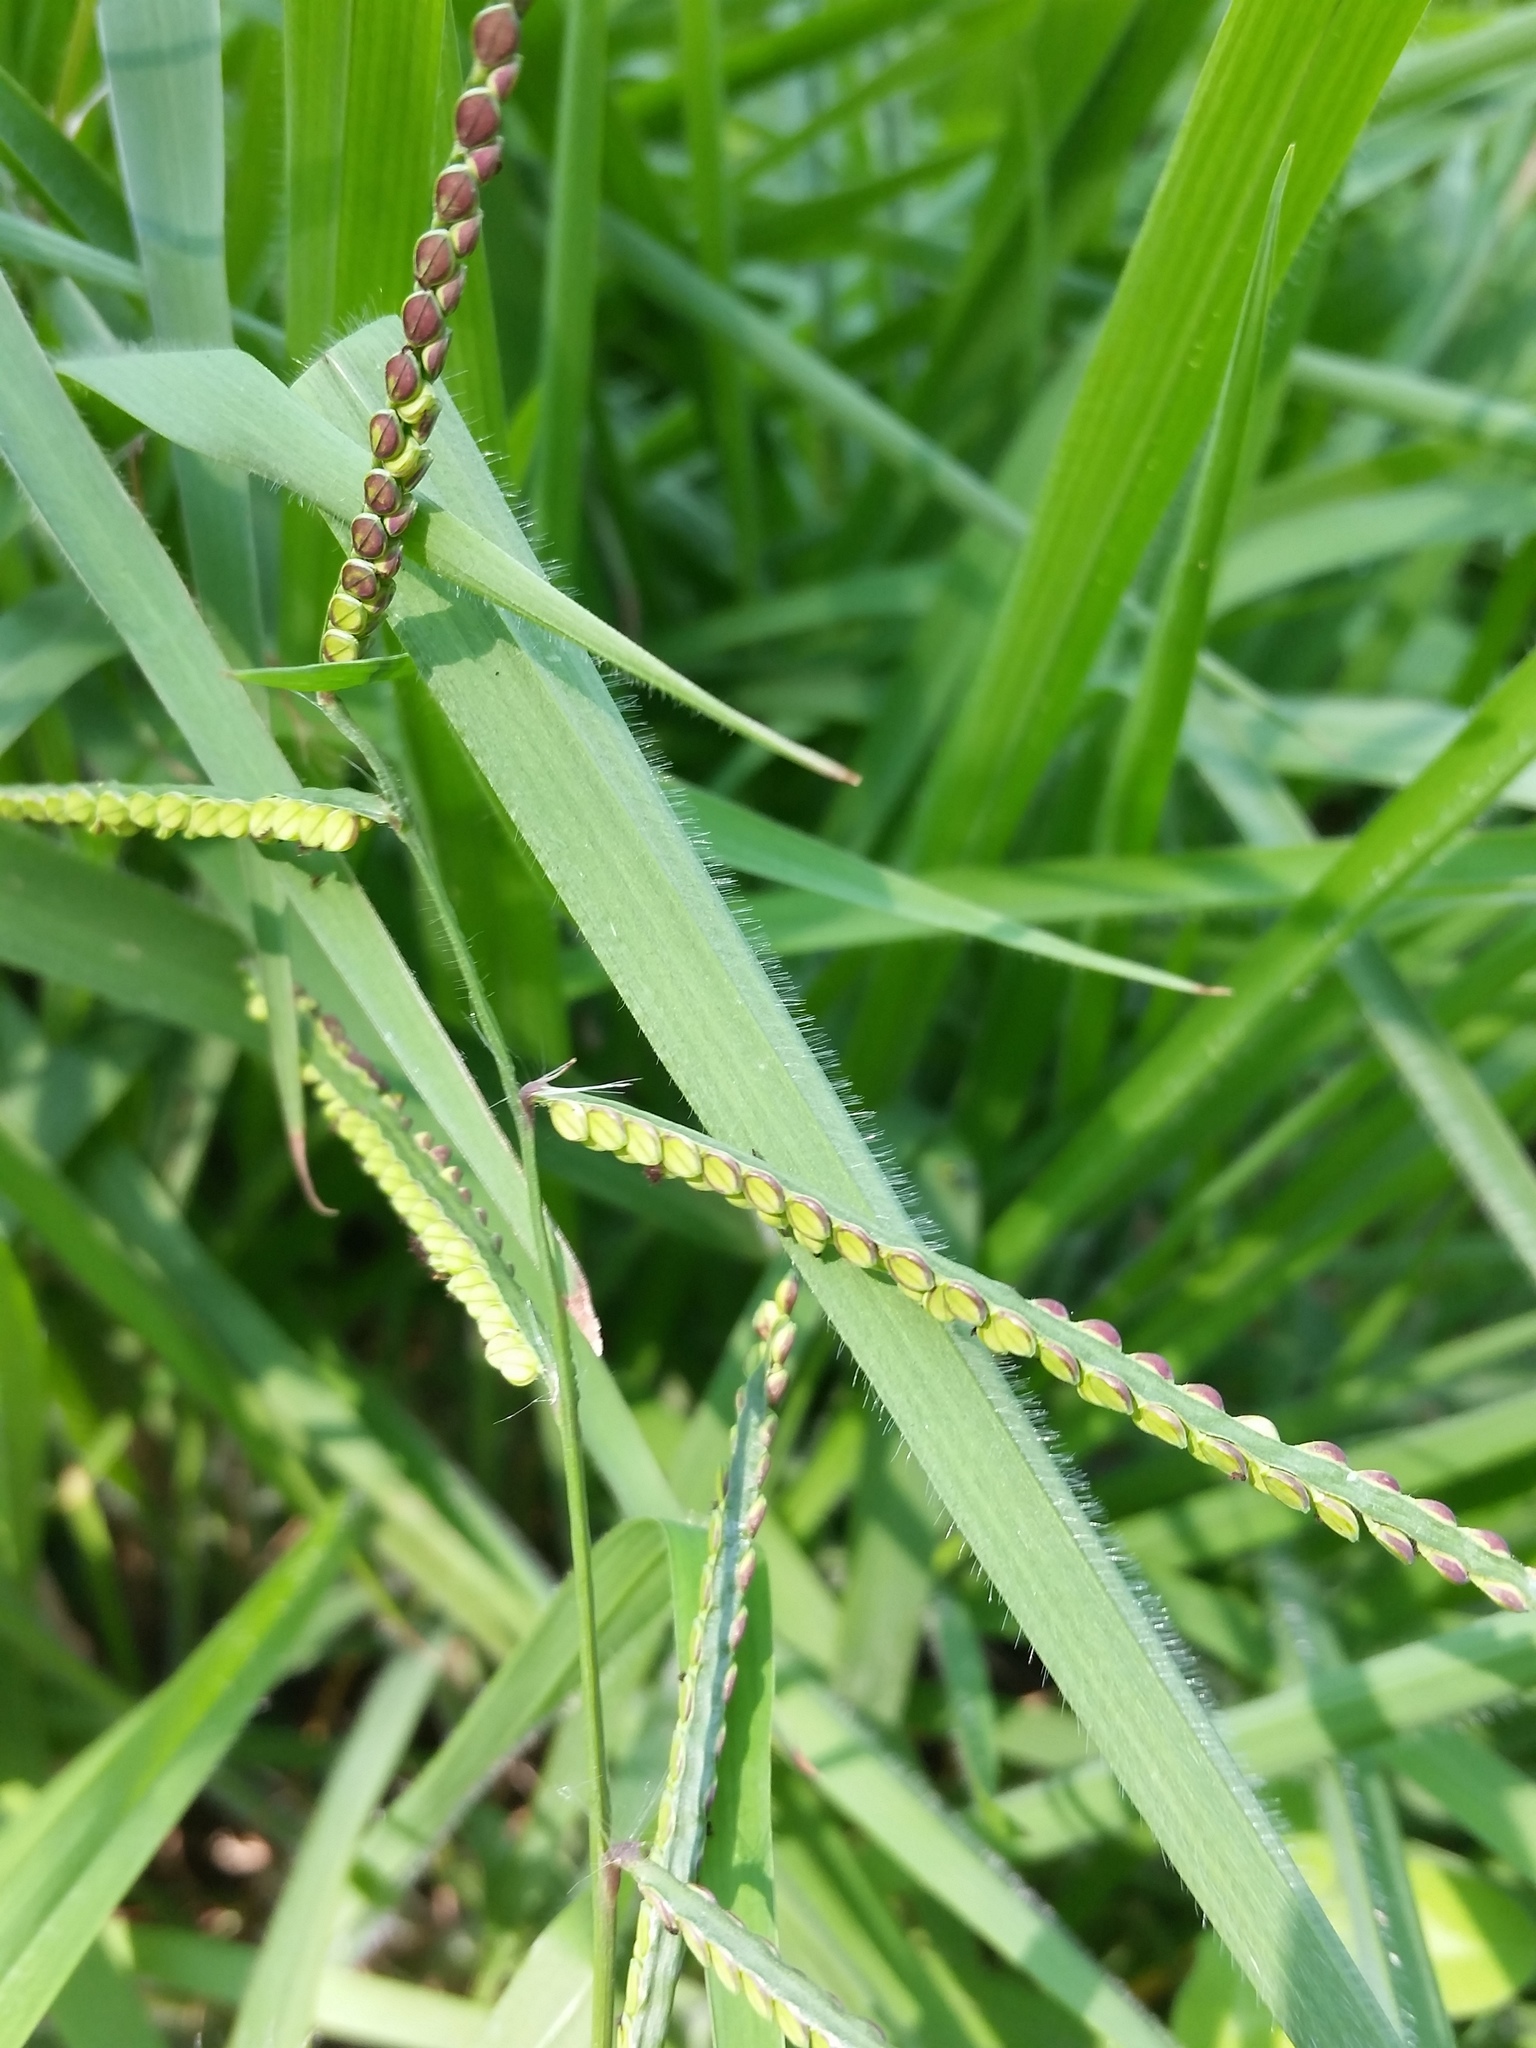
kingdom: Plantae
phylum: Tracheophyta
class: Liliopsida
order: Poales
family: Poaceae
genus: Paspalum
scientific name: Paspalum laeve
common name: Field paspalum
